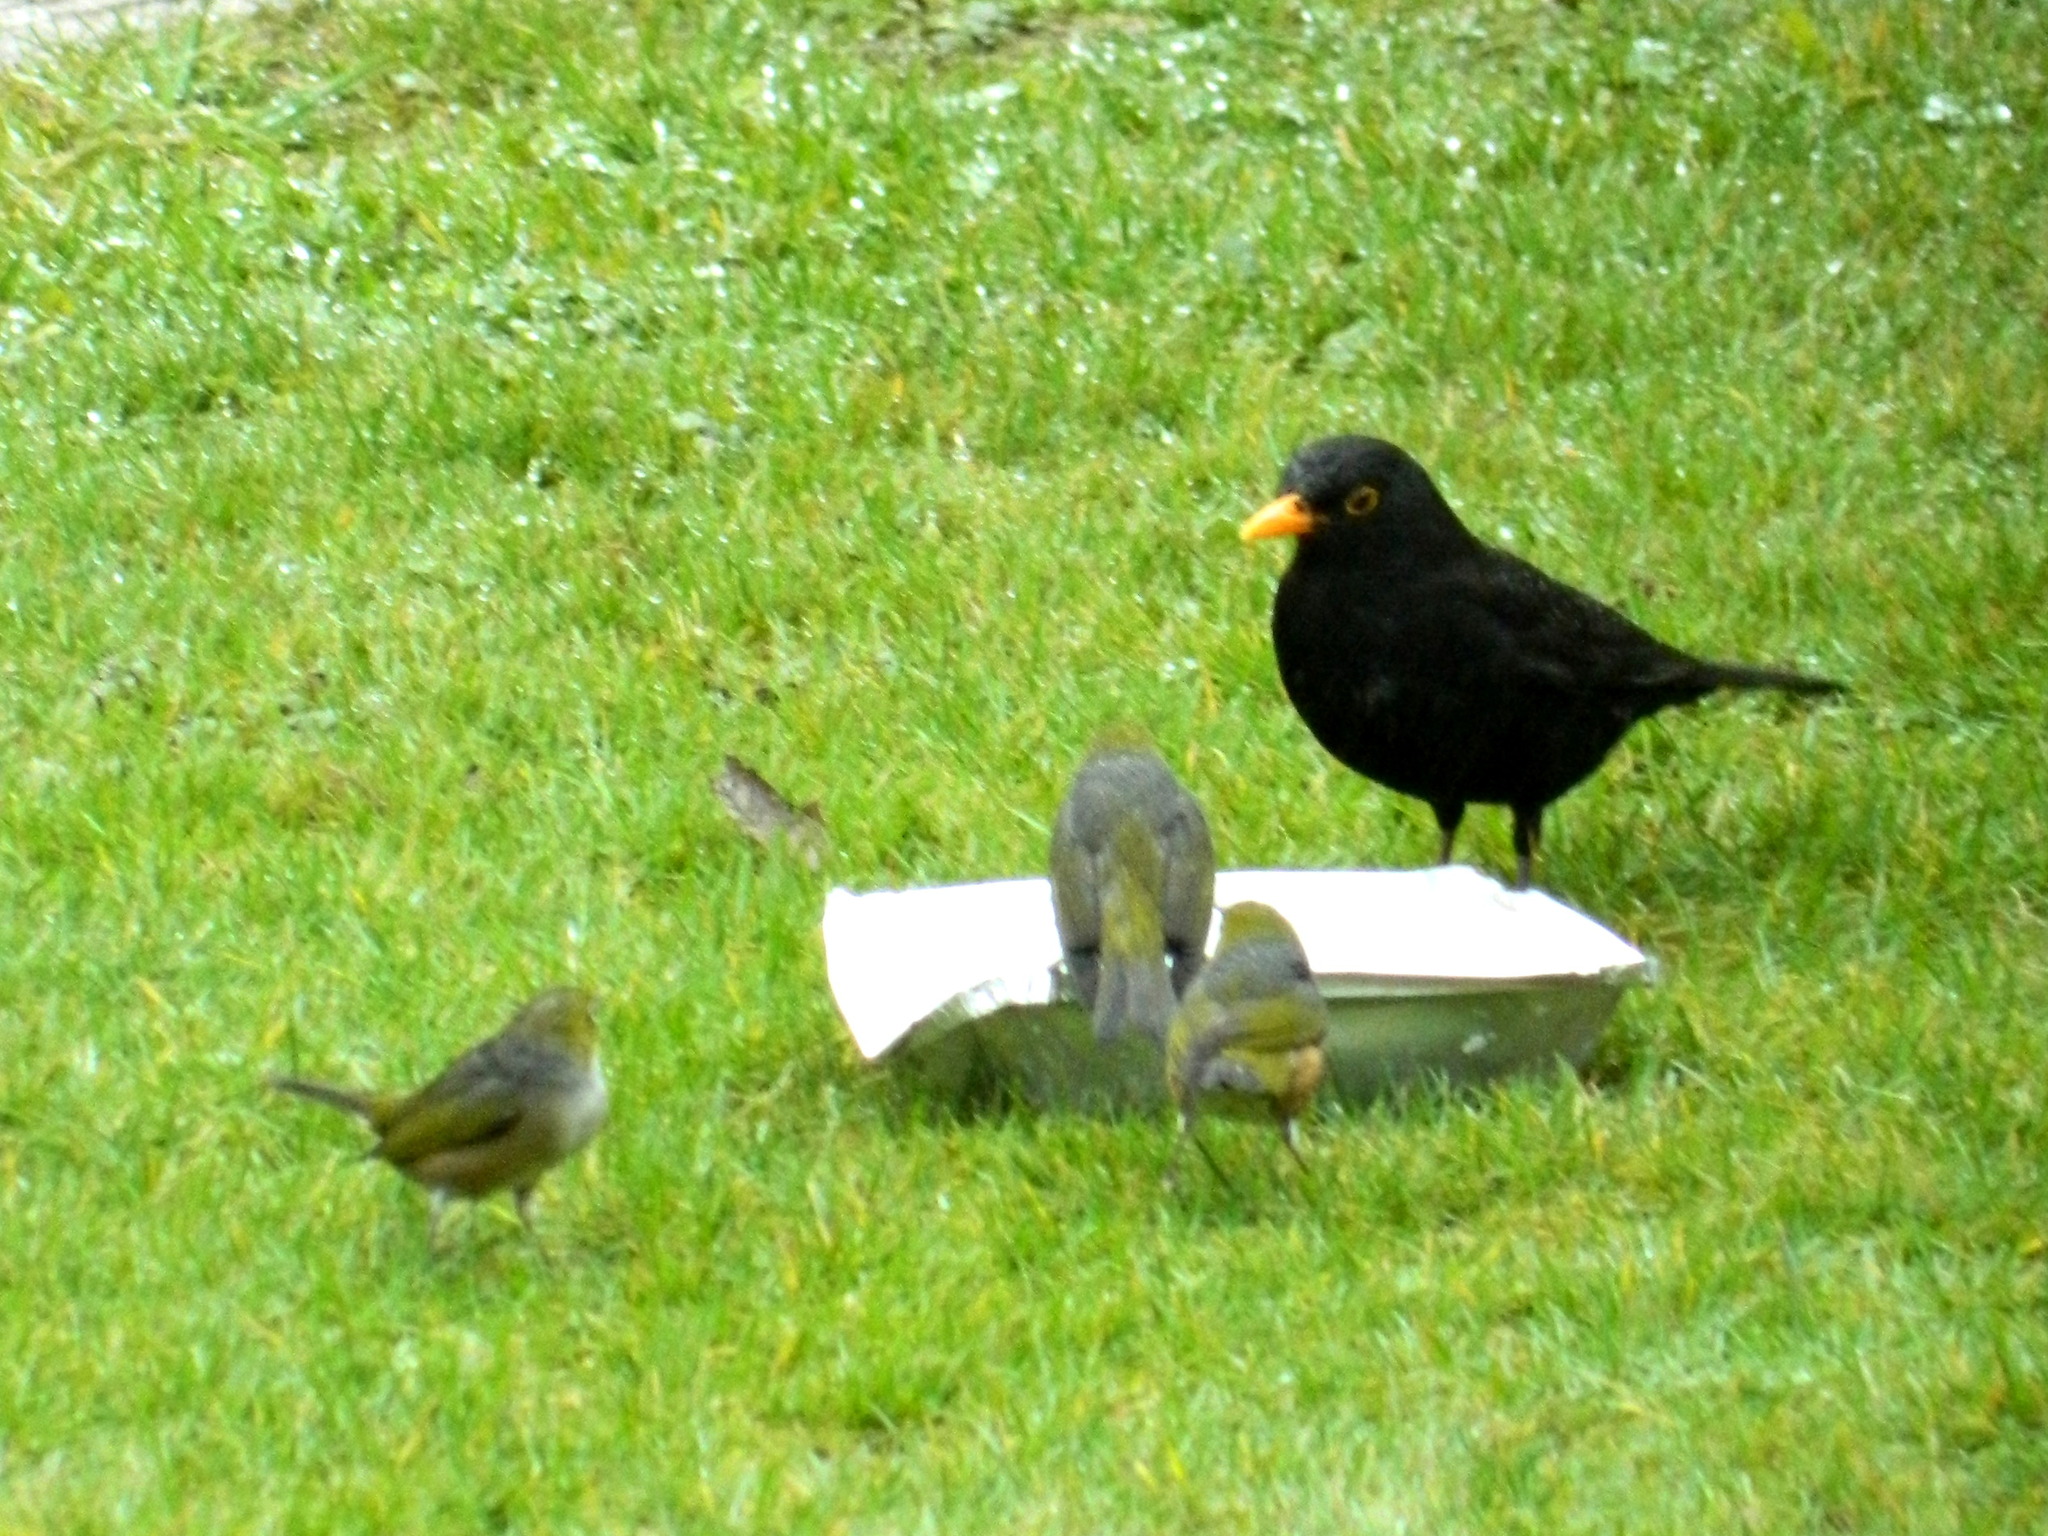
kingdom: Animalia
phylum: Chordata
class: Aves
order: Passeriformes
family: Turdidae
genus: Turdus
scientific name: Turdus merula
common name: Common blackbird
